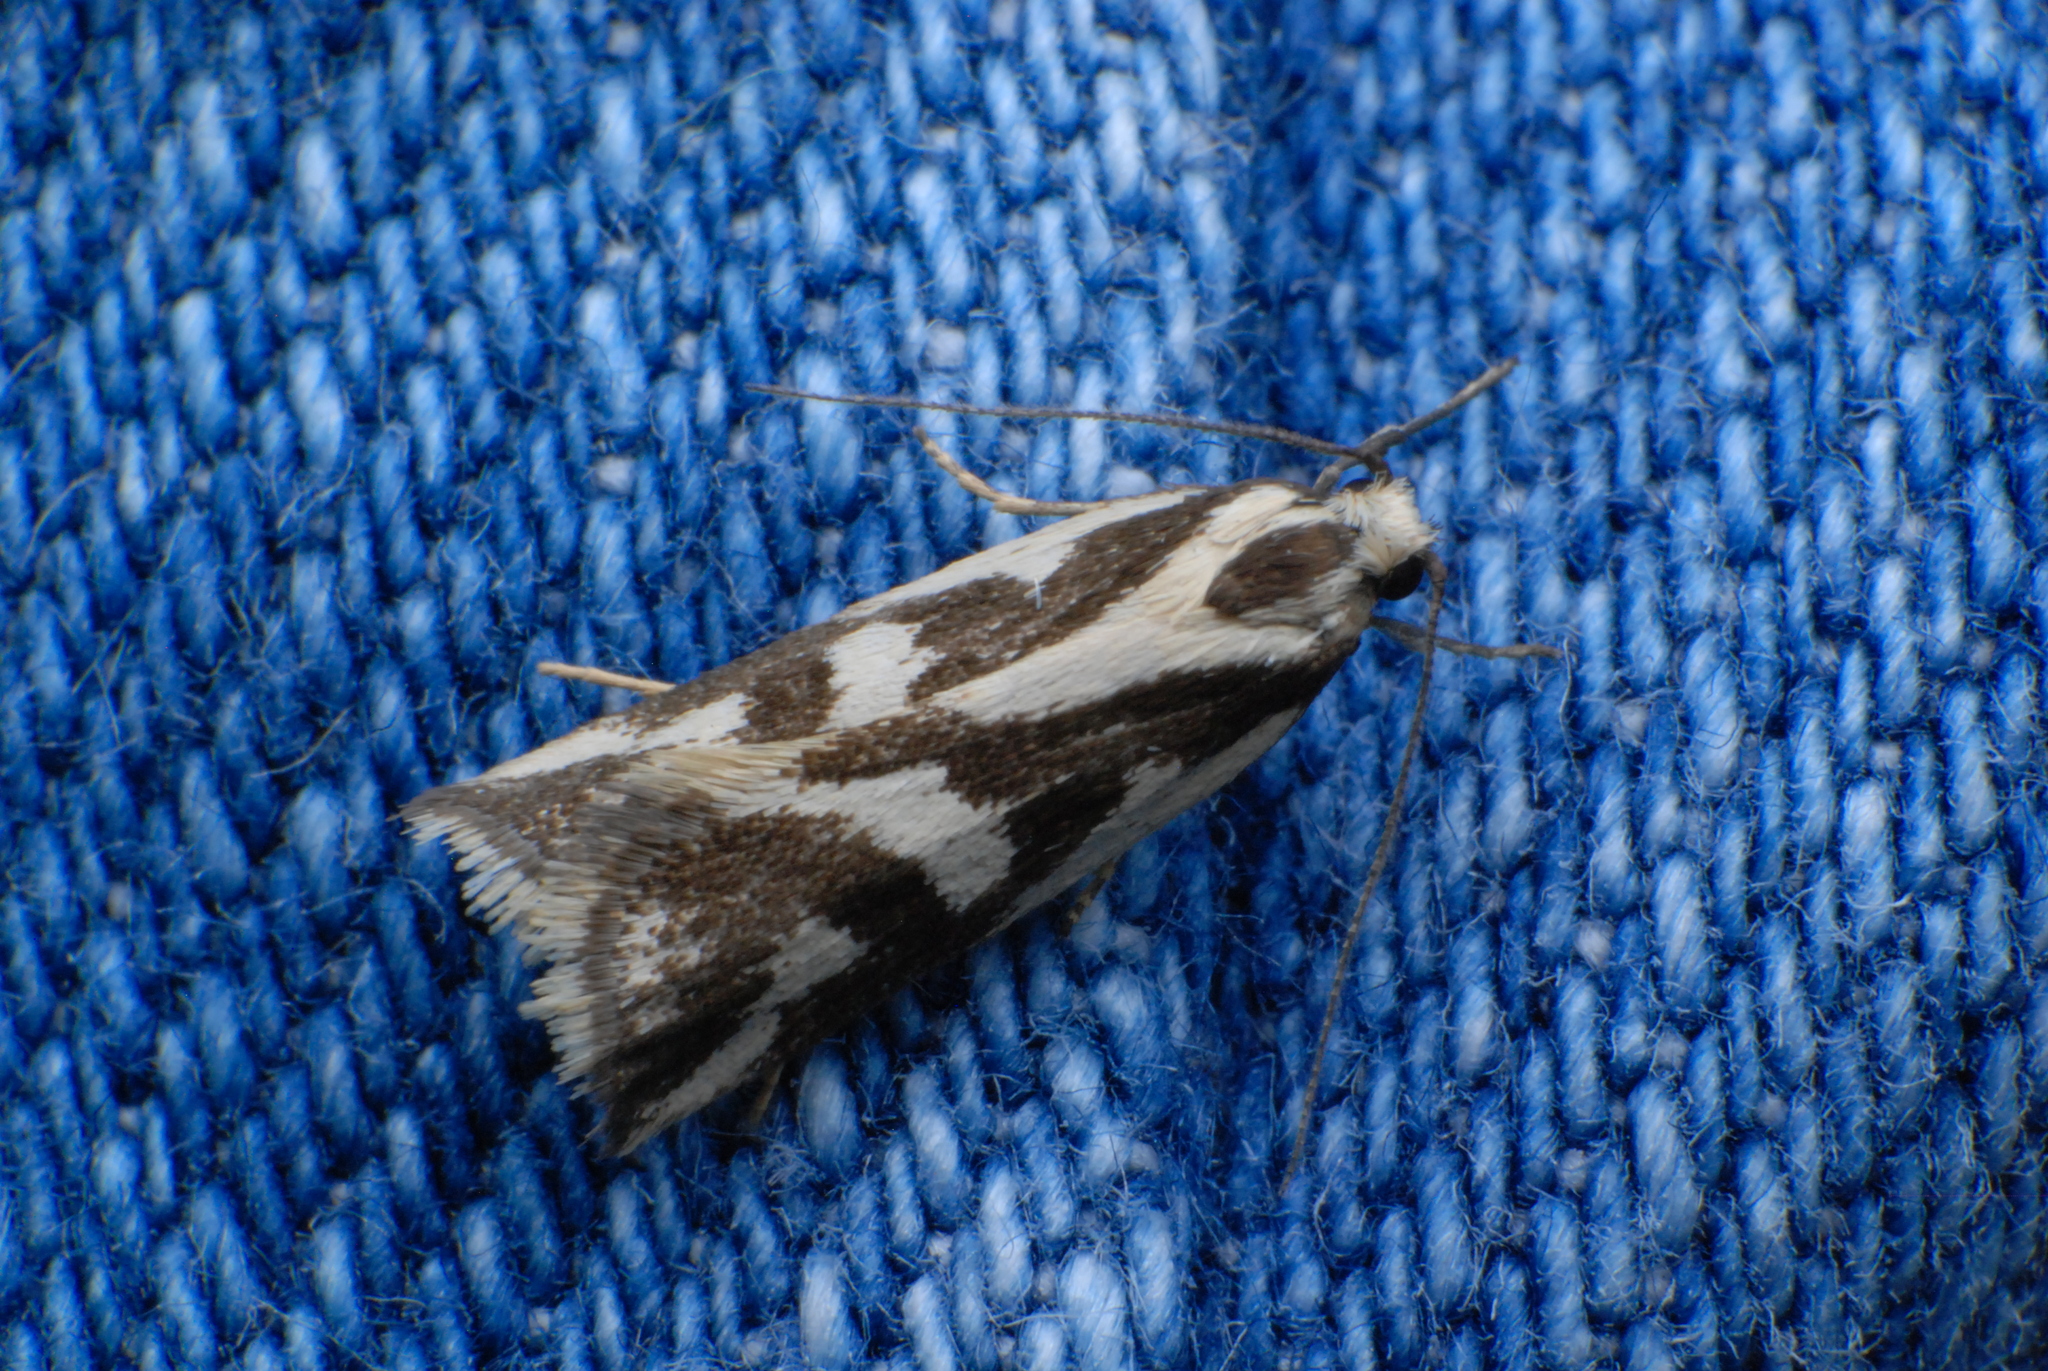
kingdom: Animalia
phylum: Arthropoda
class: Insecta
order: Lepidoptera
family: Oecophoridae
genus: Epithymema
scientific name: Epithymema incomposita
